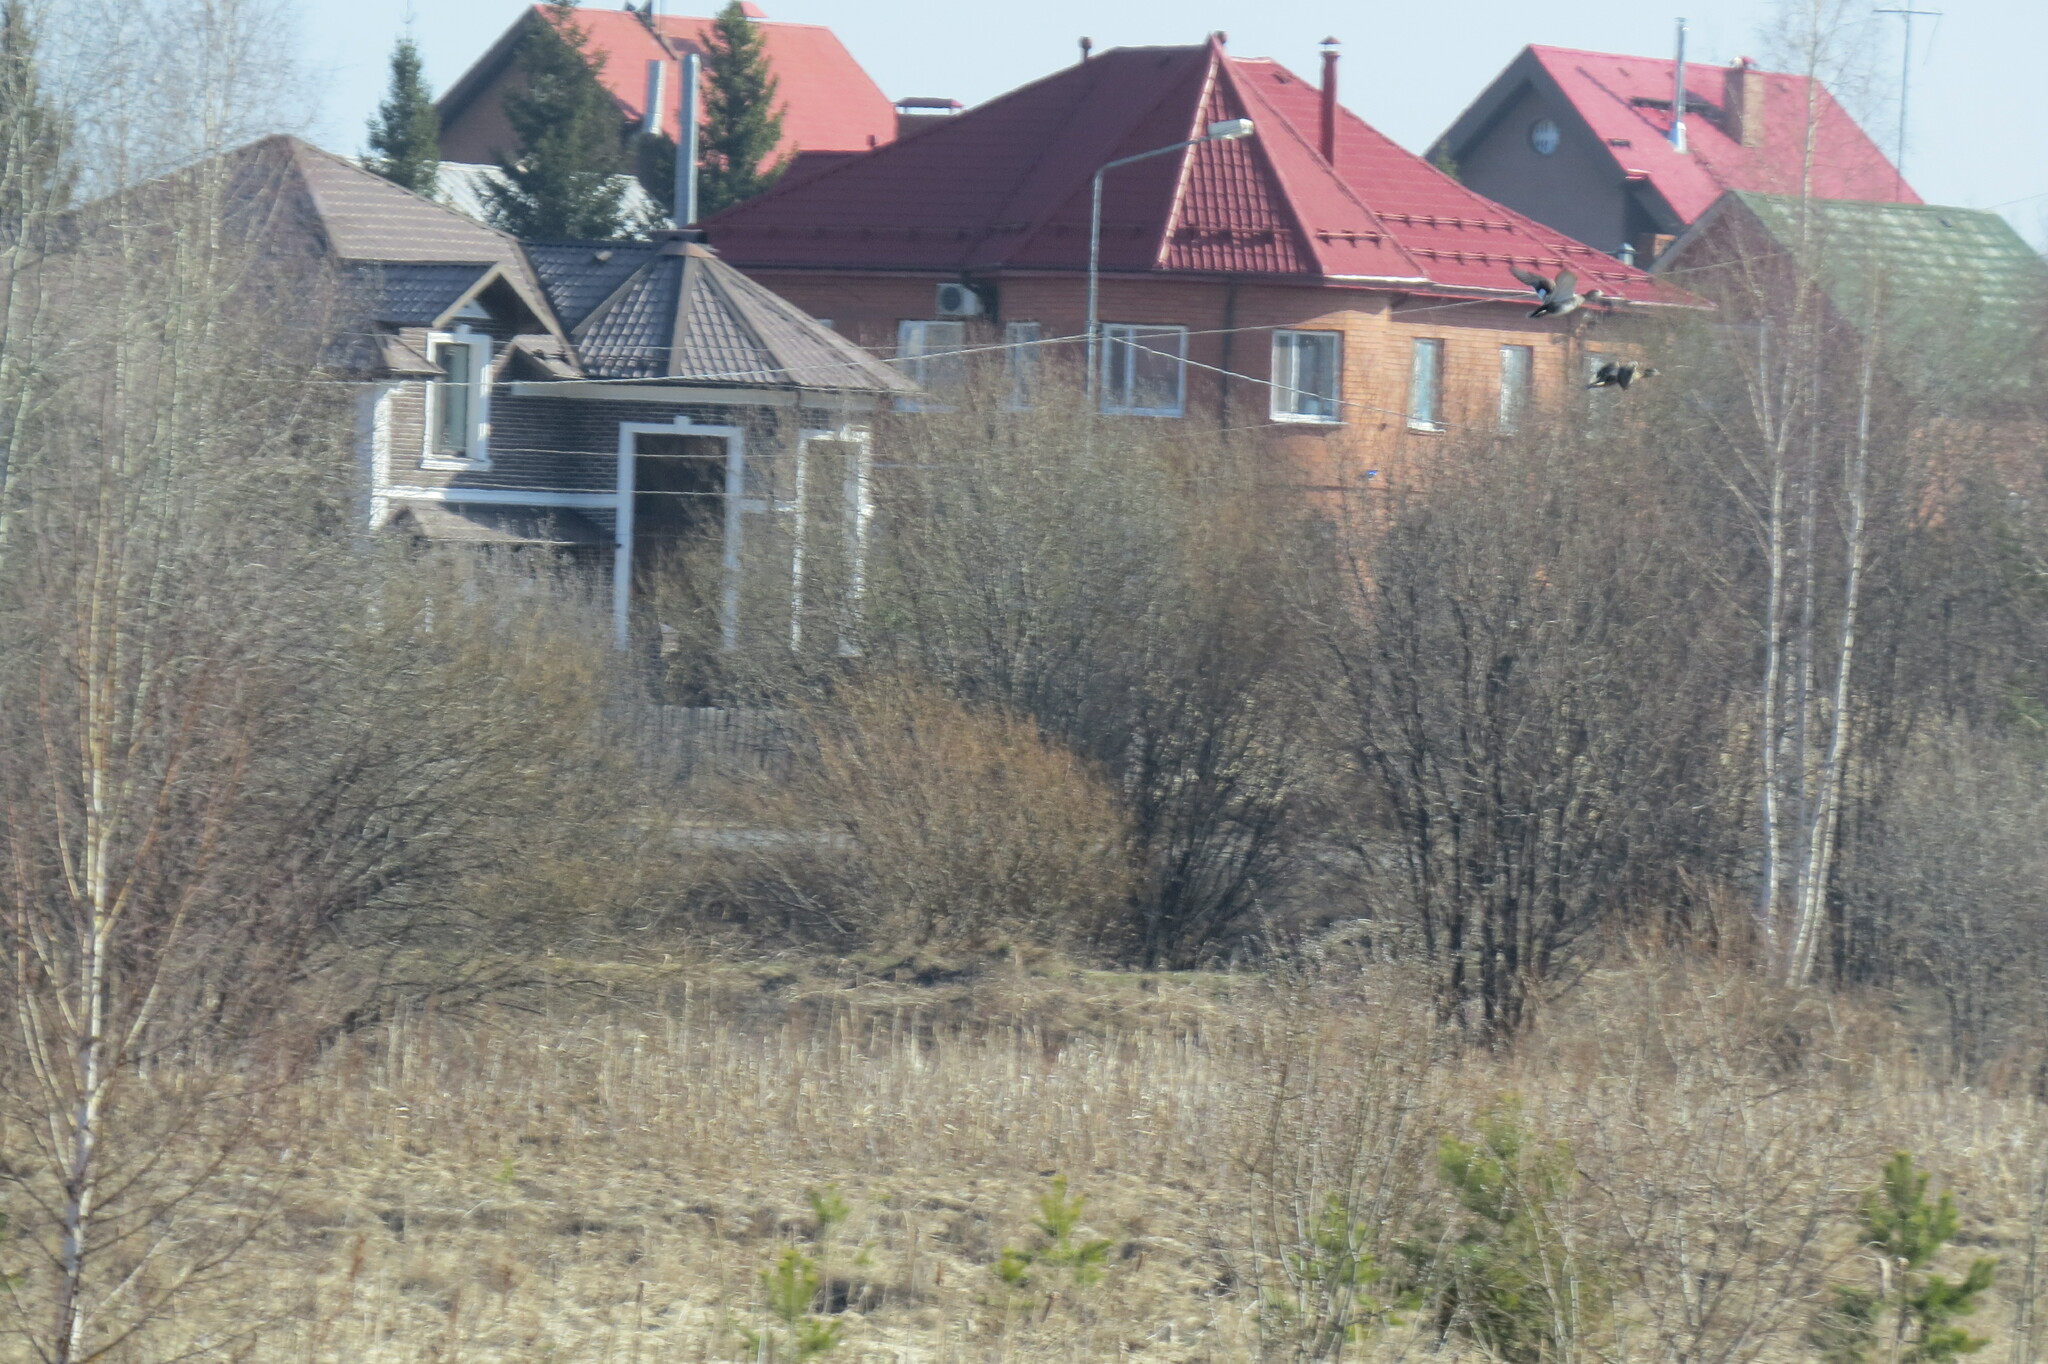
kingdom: Animalia
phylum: Chordata
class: Aves
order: Anseriformes
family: Anatidae
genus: Mareca
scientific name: Mareca strepera
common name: Gadwall
